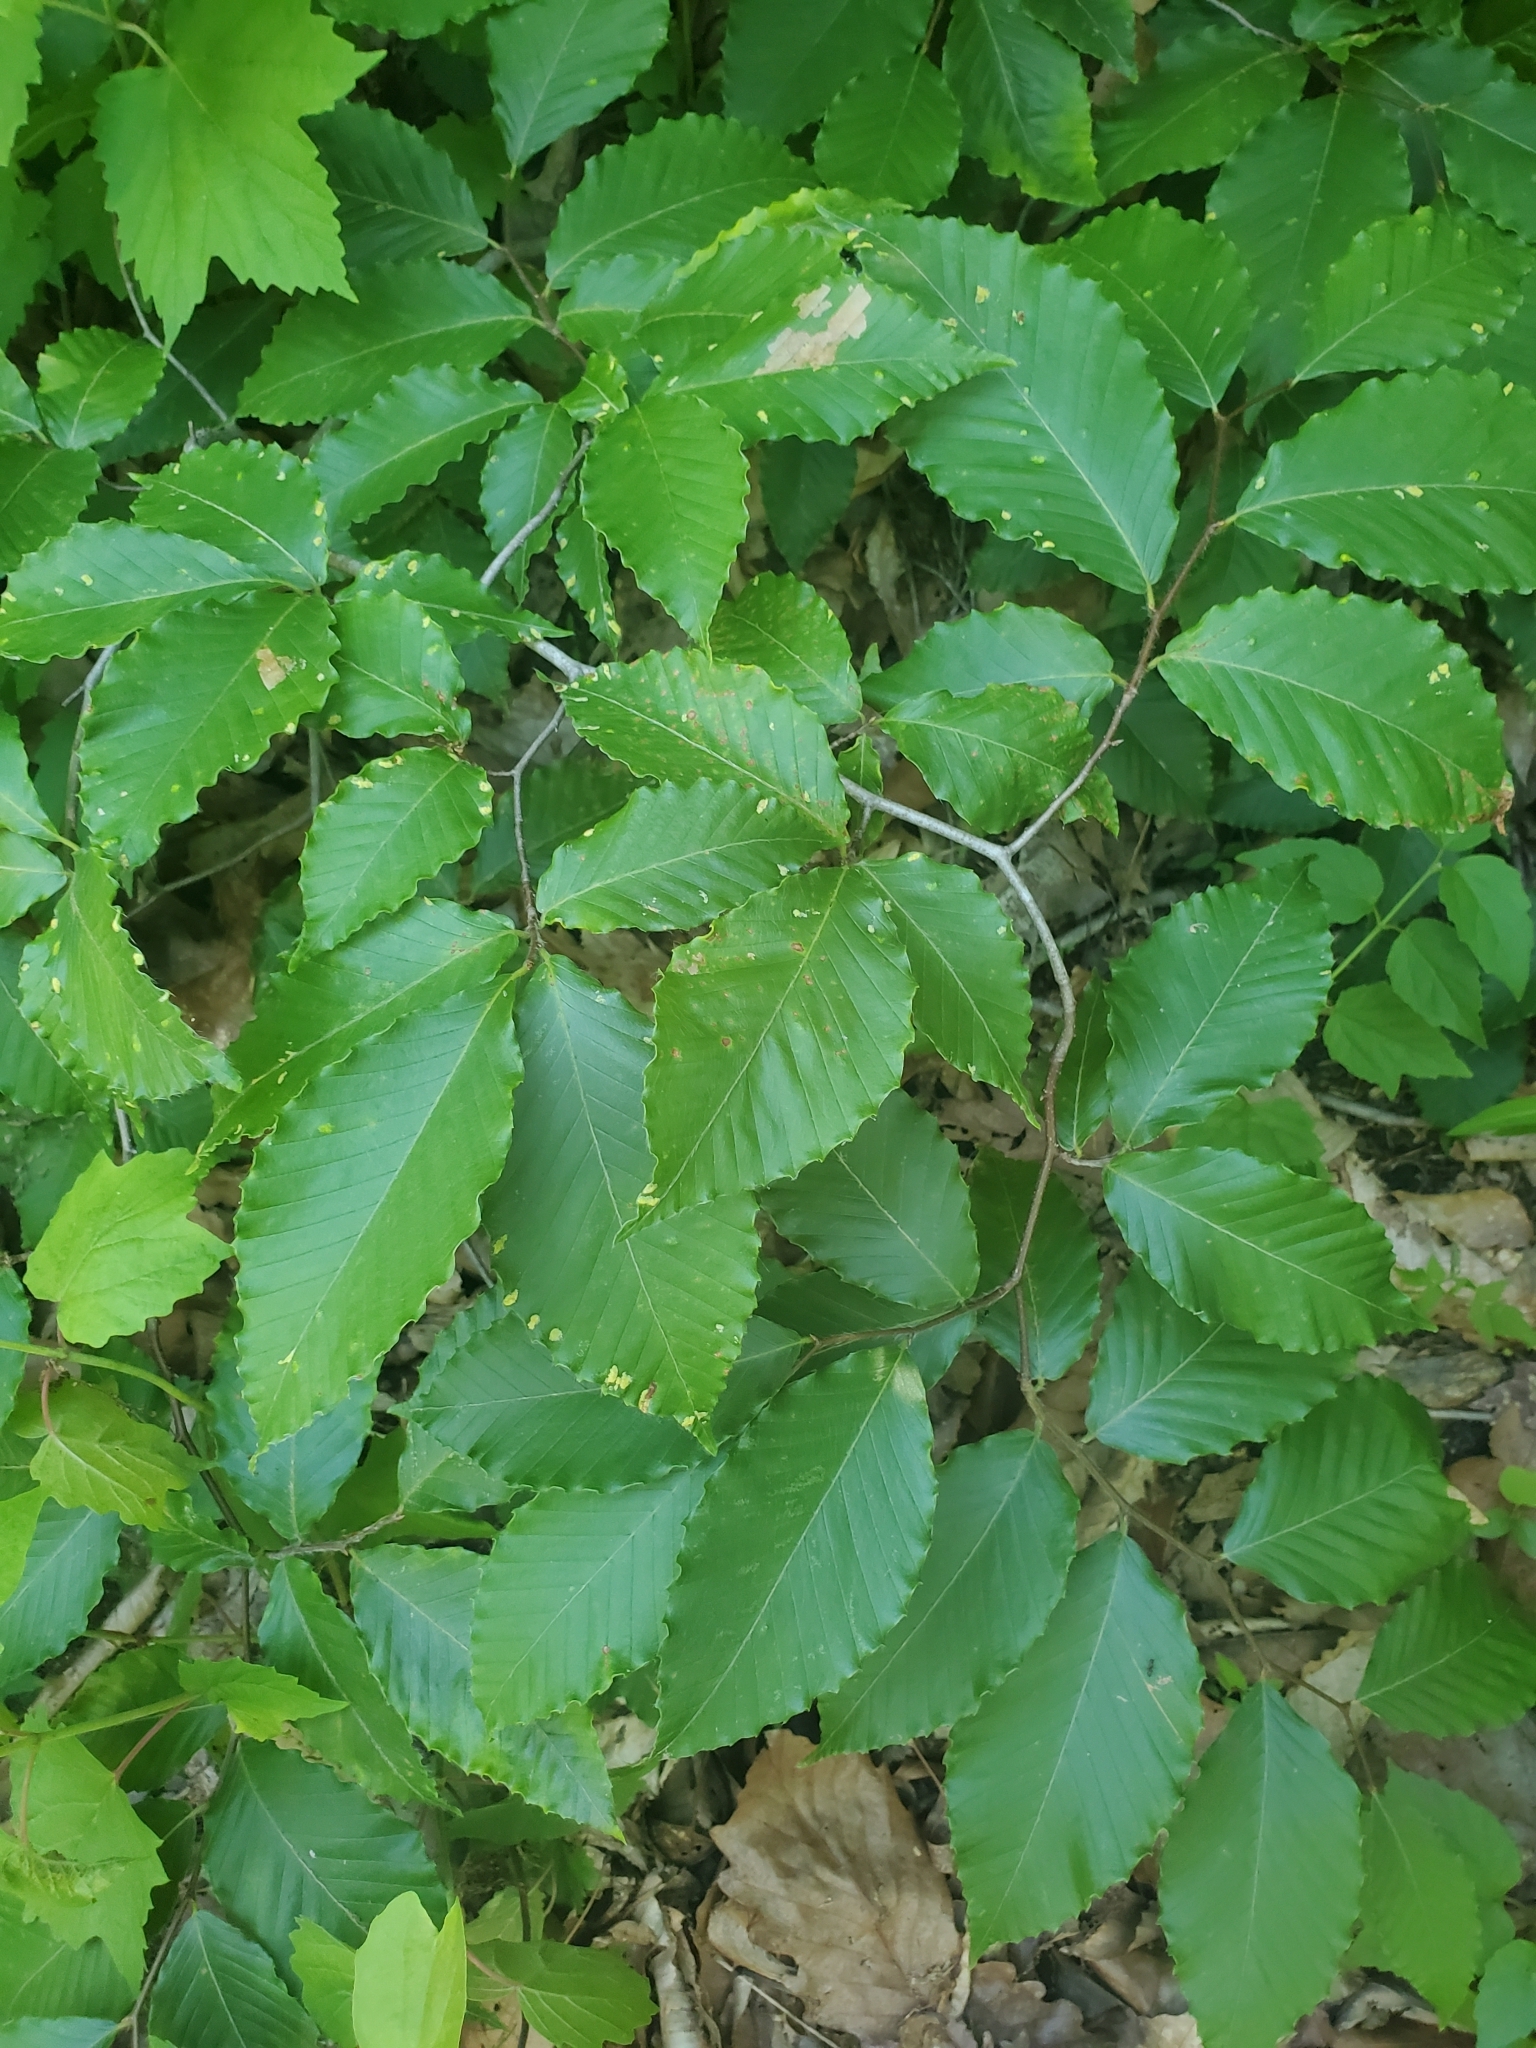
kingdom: Plantae
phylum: Tracheophyta
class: Magnoliopsida
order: Fagales
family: Fagaceae
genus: Fagus
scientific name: Fagus grandifolia
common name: American beech
